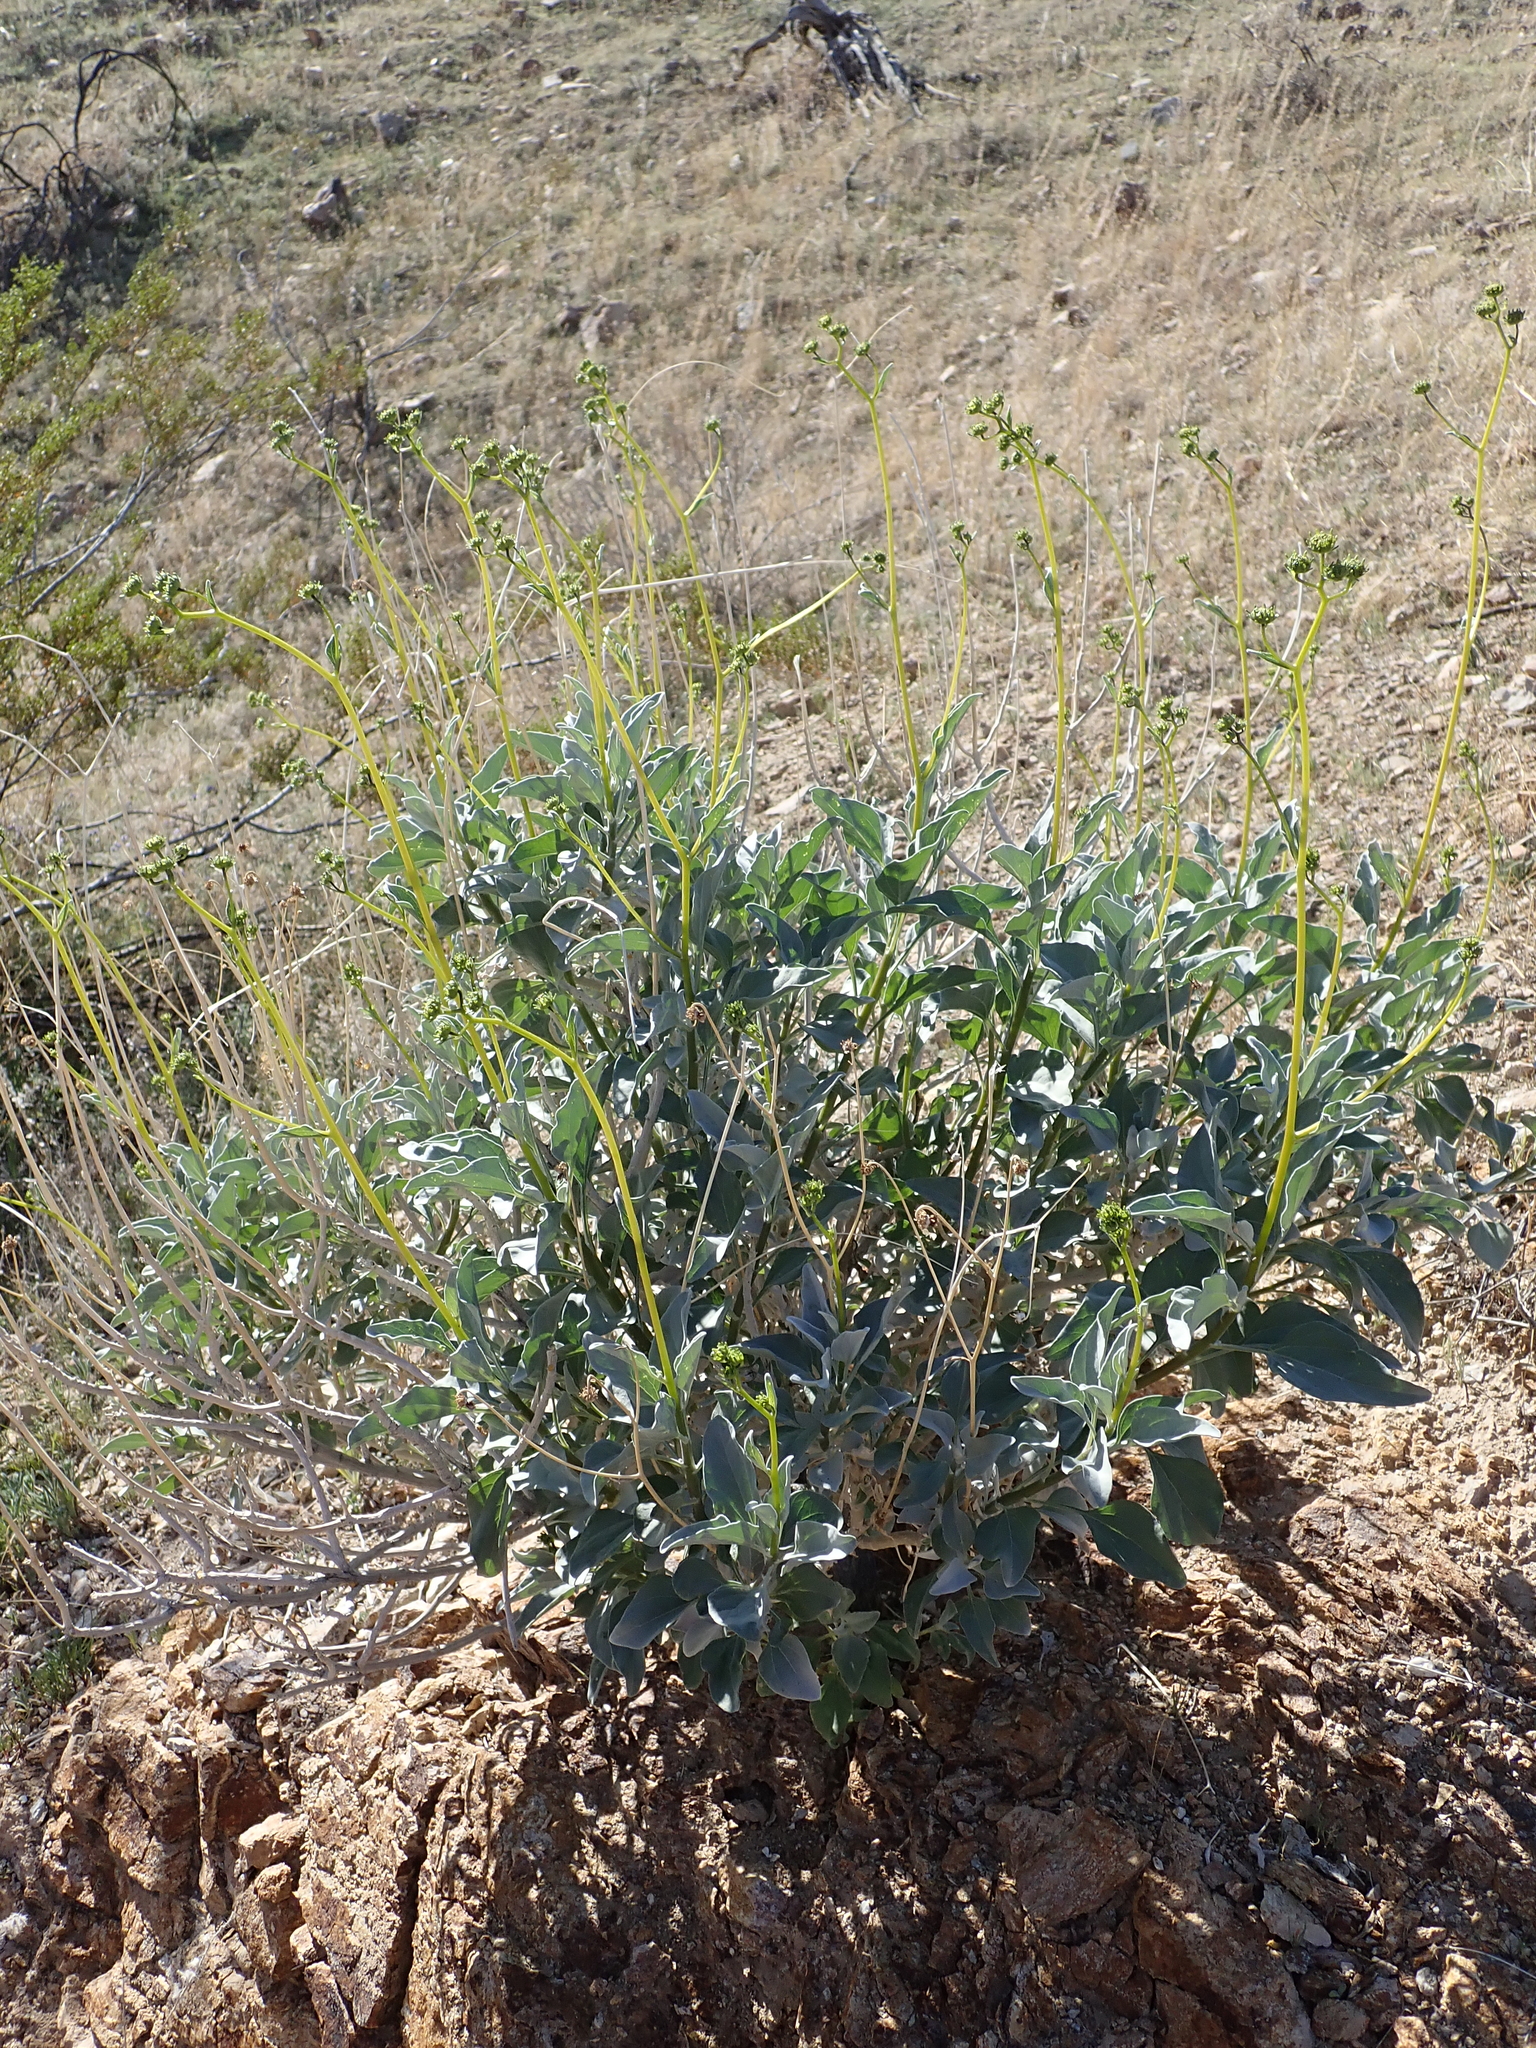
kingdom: Plantae
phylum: Tracheophyta
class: Magnoliopsida
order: Asterales
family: Asteraceae
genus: Encelia
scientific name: Encelia farinosa
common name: Brittlebush
